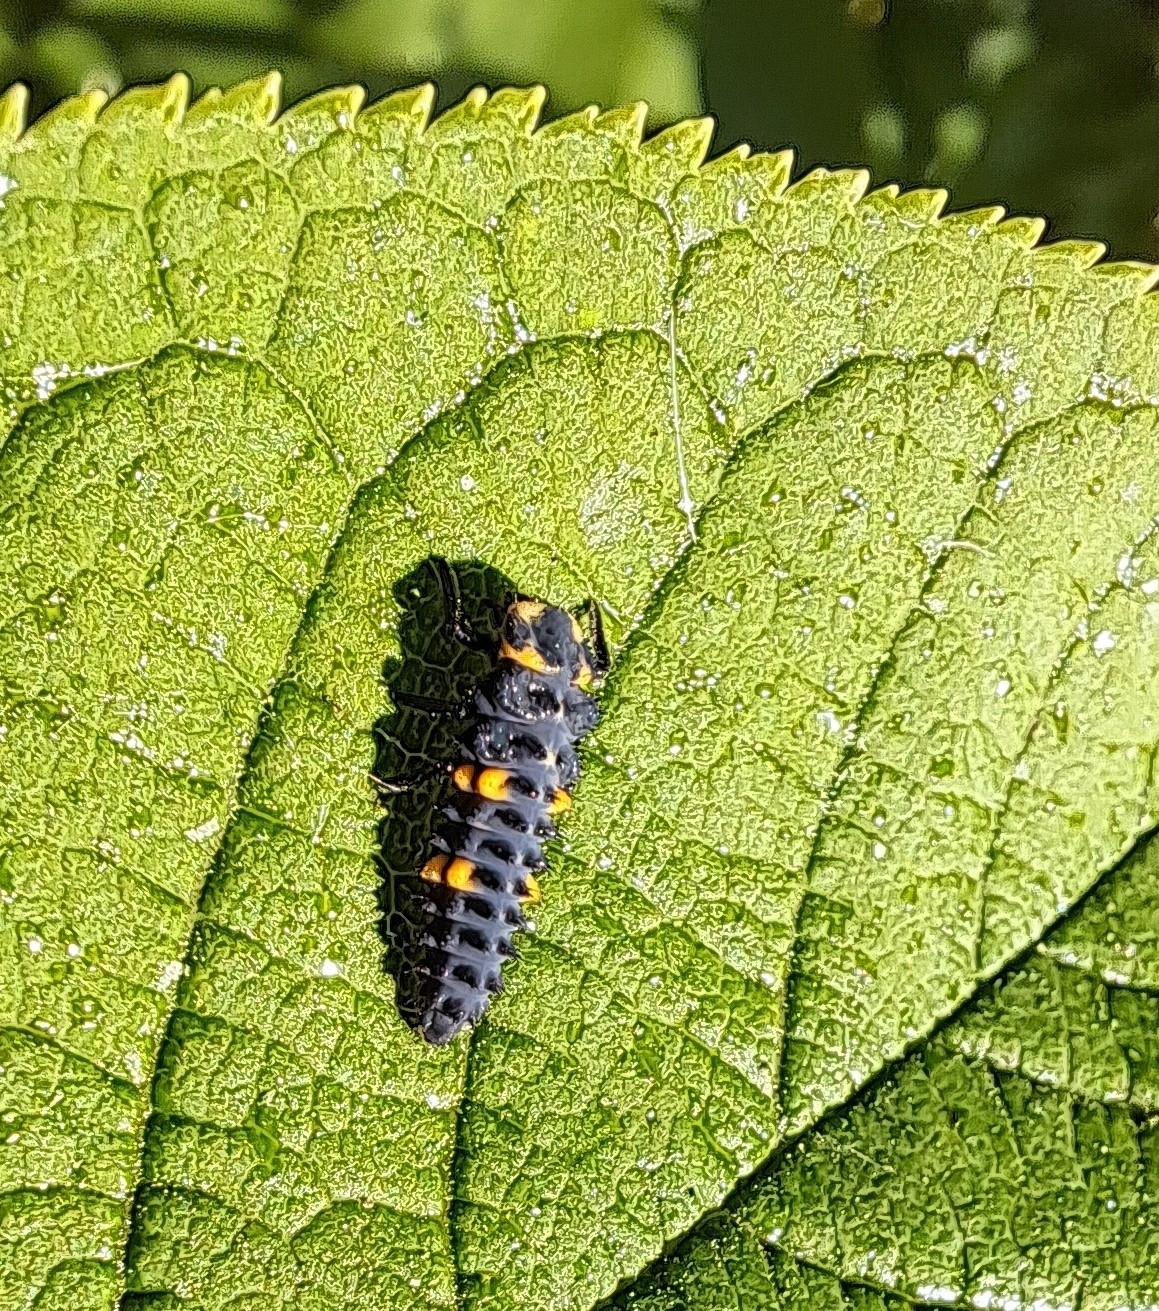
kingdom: Animalia
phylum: Arthropoda
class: Insecta
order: Coleoptera
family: Coccinellidae
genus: Coccinella
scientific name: Coccinella septempunctata
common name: Sevenspotted lady beetle
